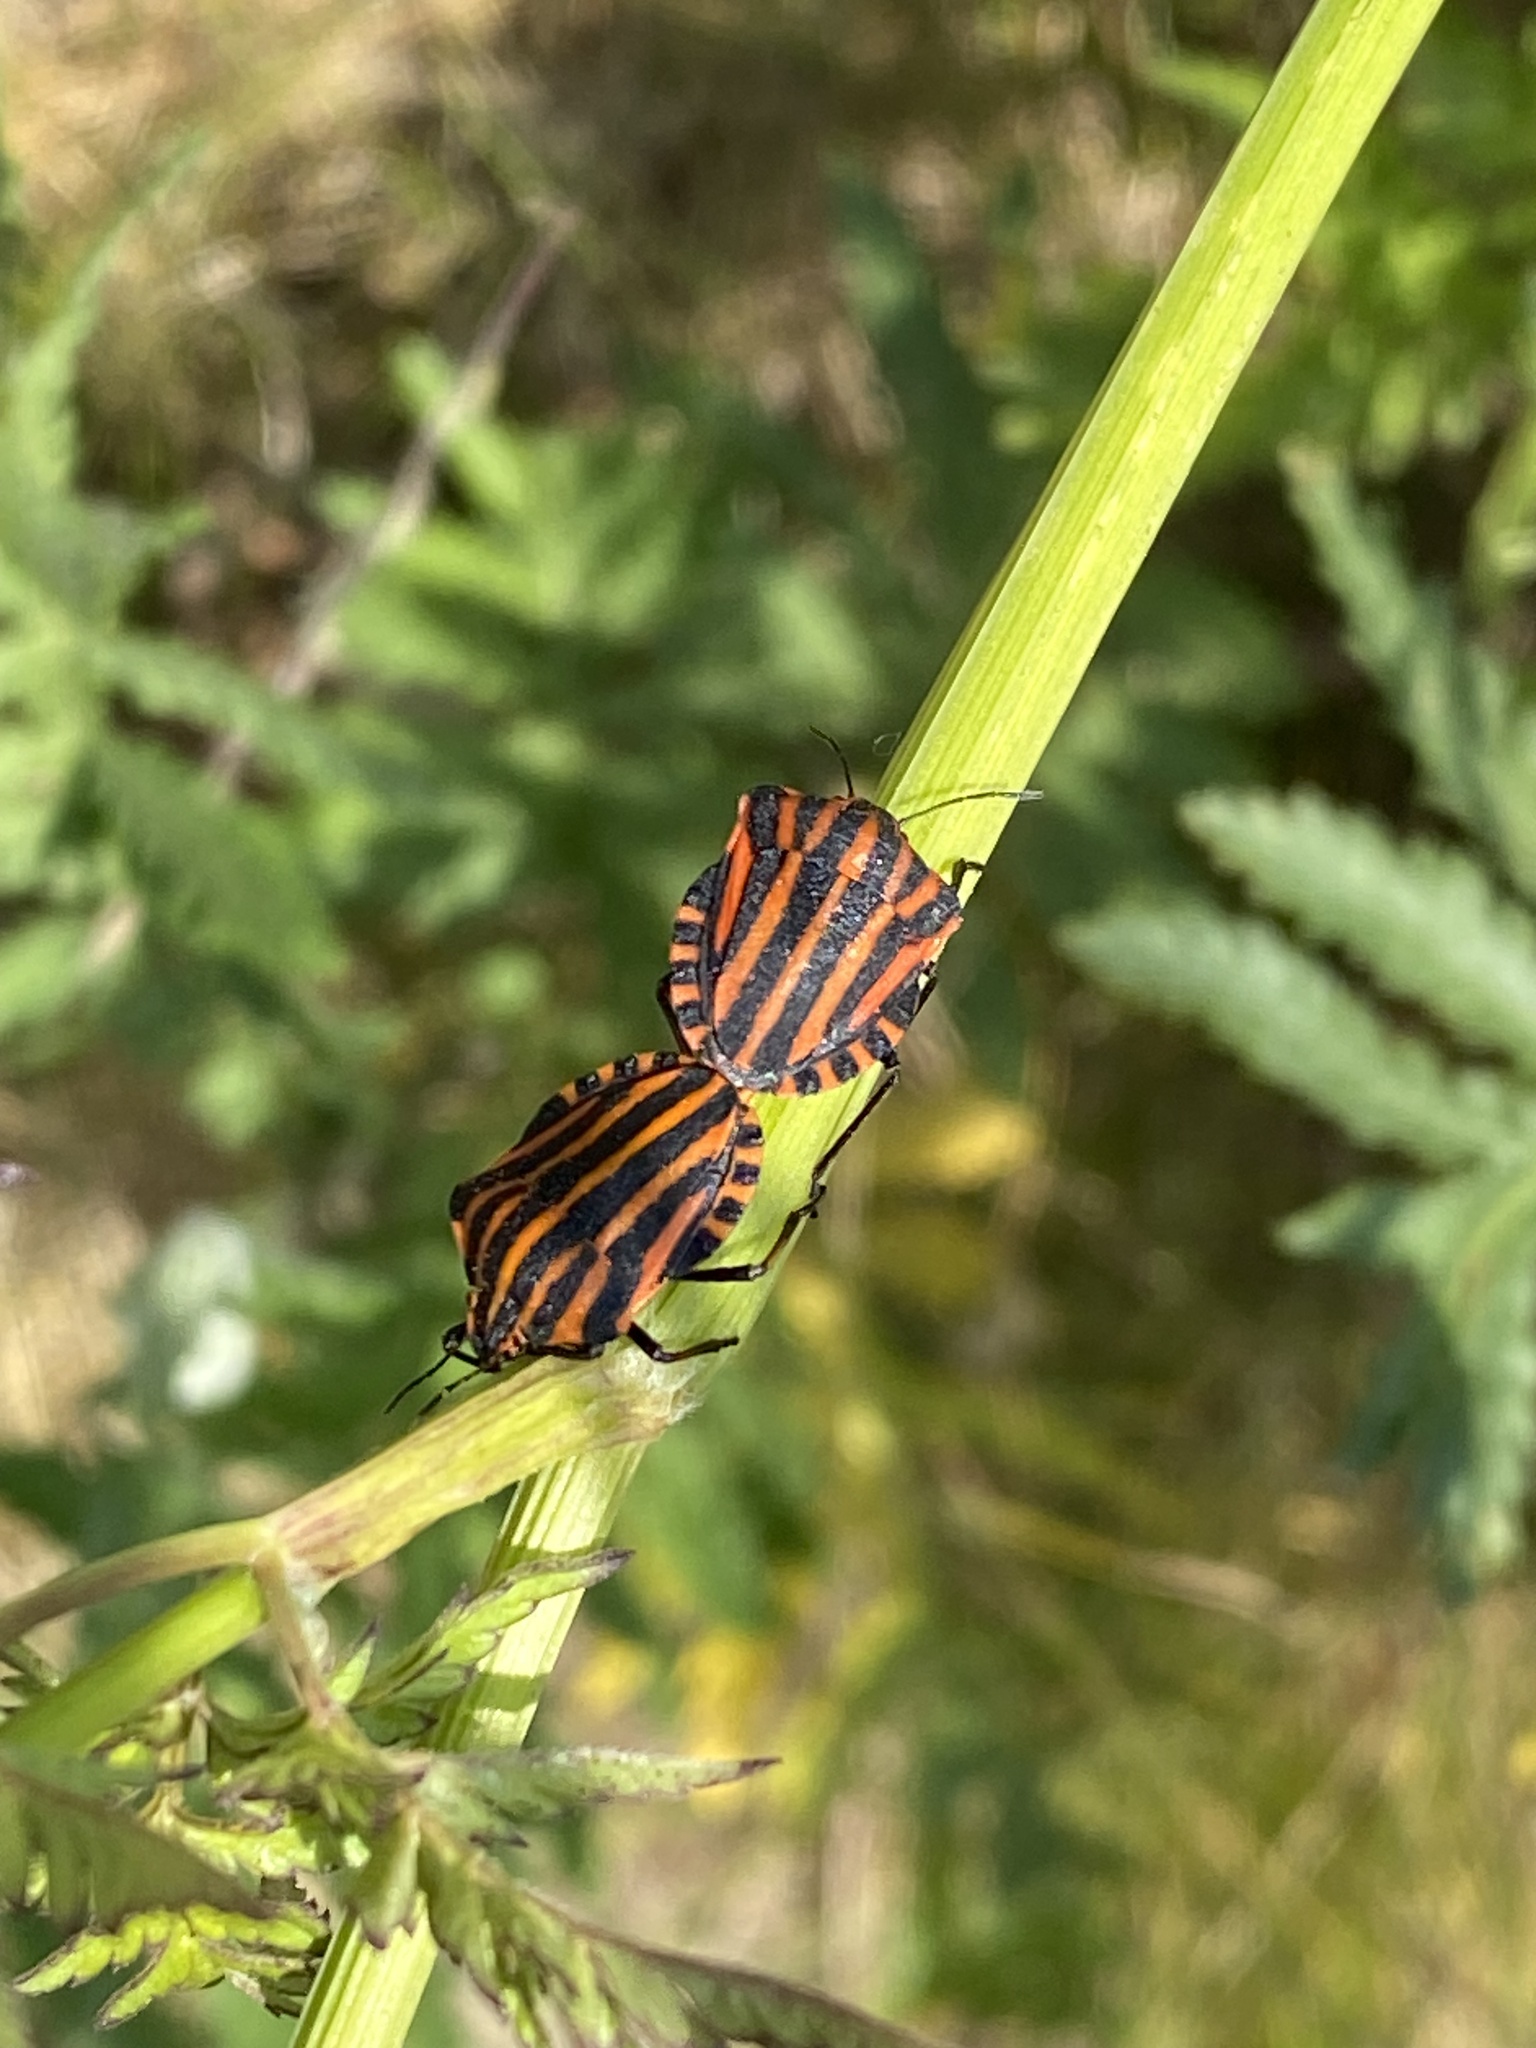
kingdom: Animalia
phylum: Arthropoda
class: Insecta
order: Hemiptera
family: Pentatomidae
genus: Graphosoma
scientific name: Graphosoma italicum
